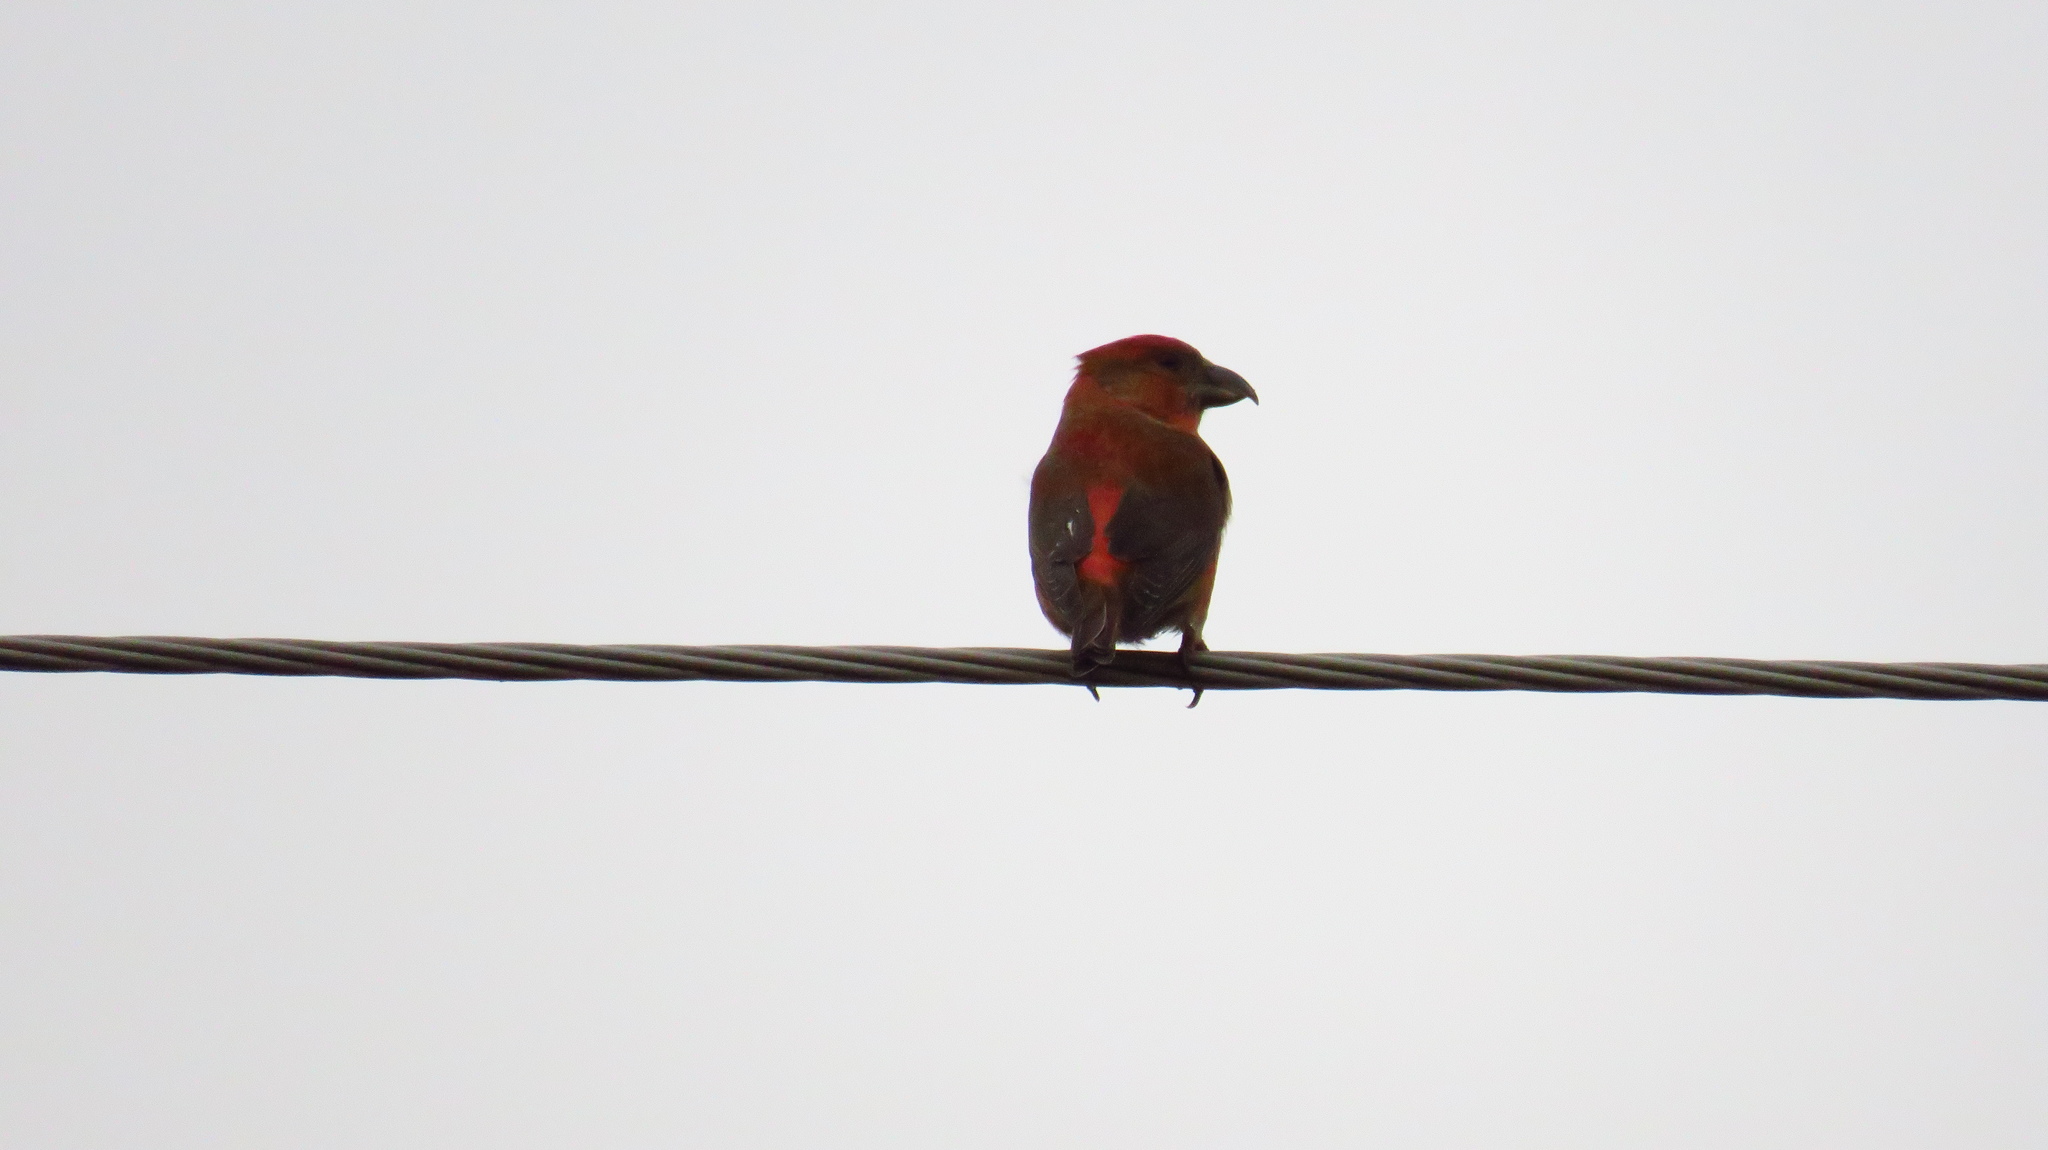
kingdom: Animalia
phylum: Chordata
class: Aves
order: Passeriformes
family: Fringillidae
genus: Loxia
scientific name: Loxia curvirostra
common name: Red crossbill
